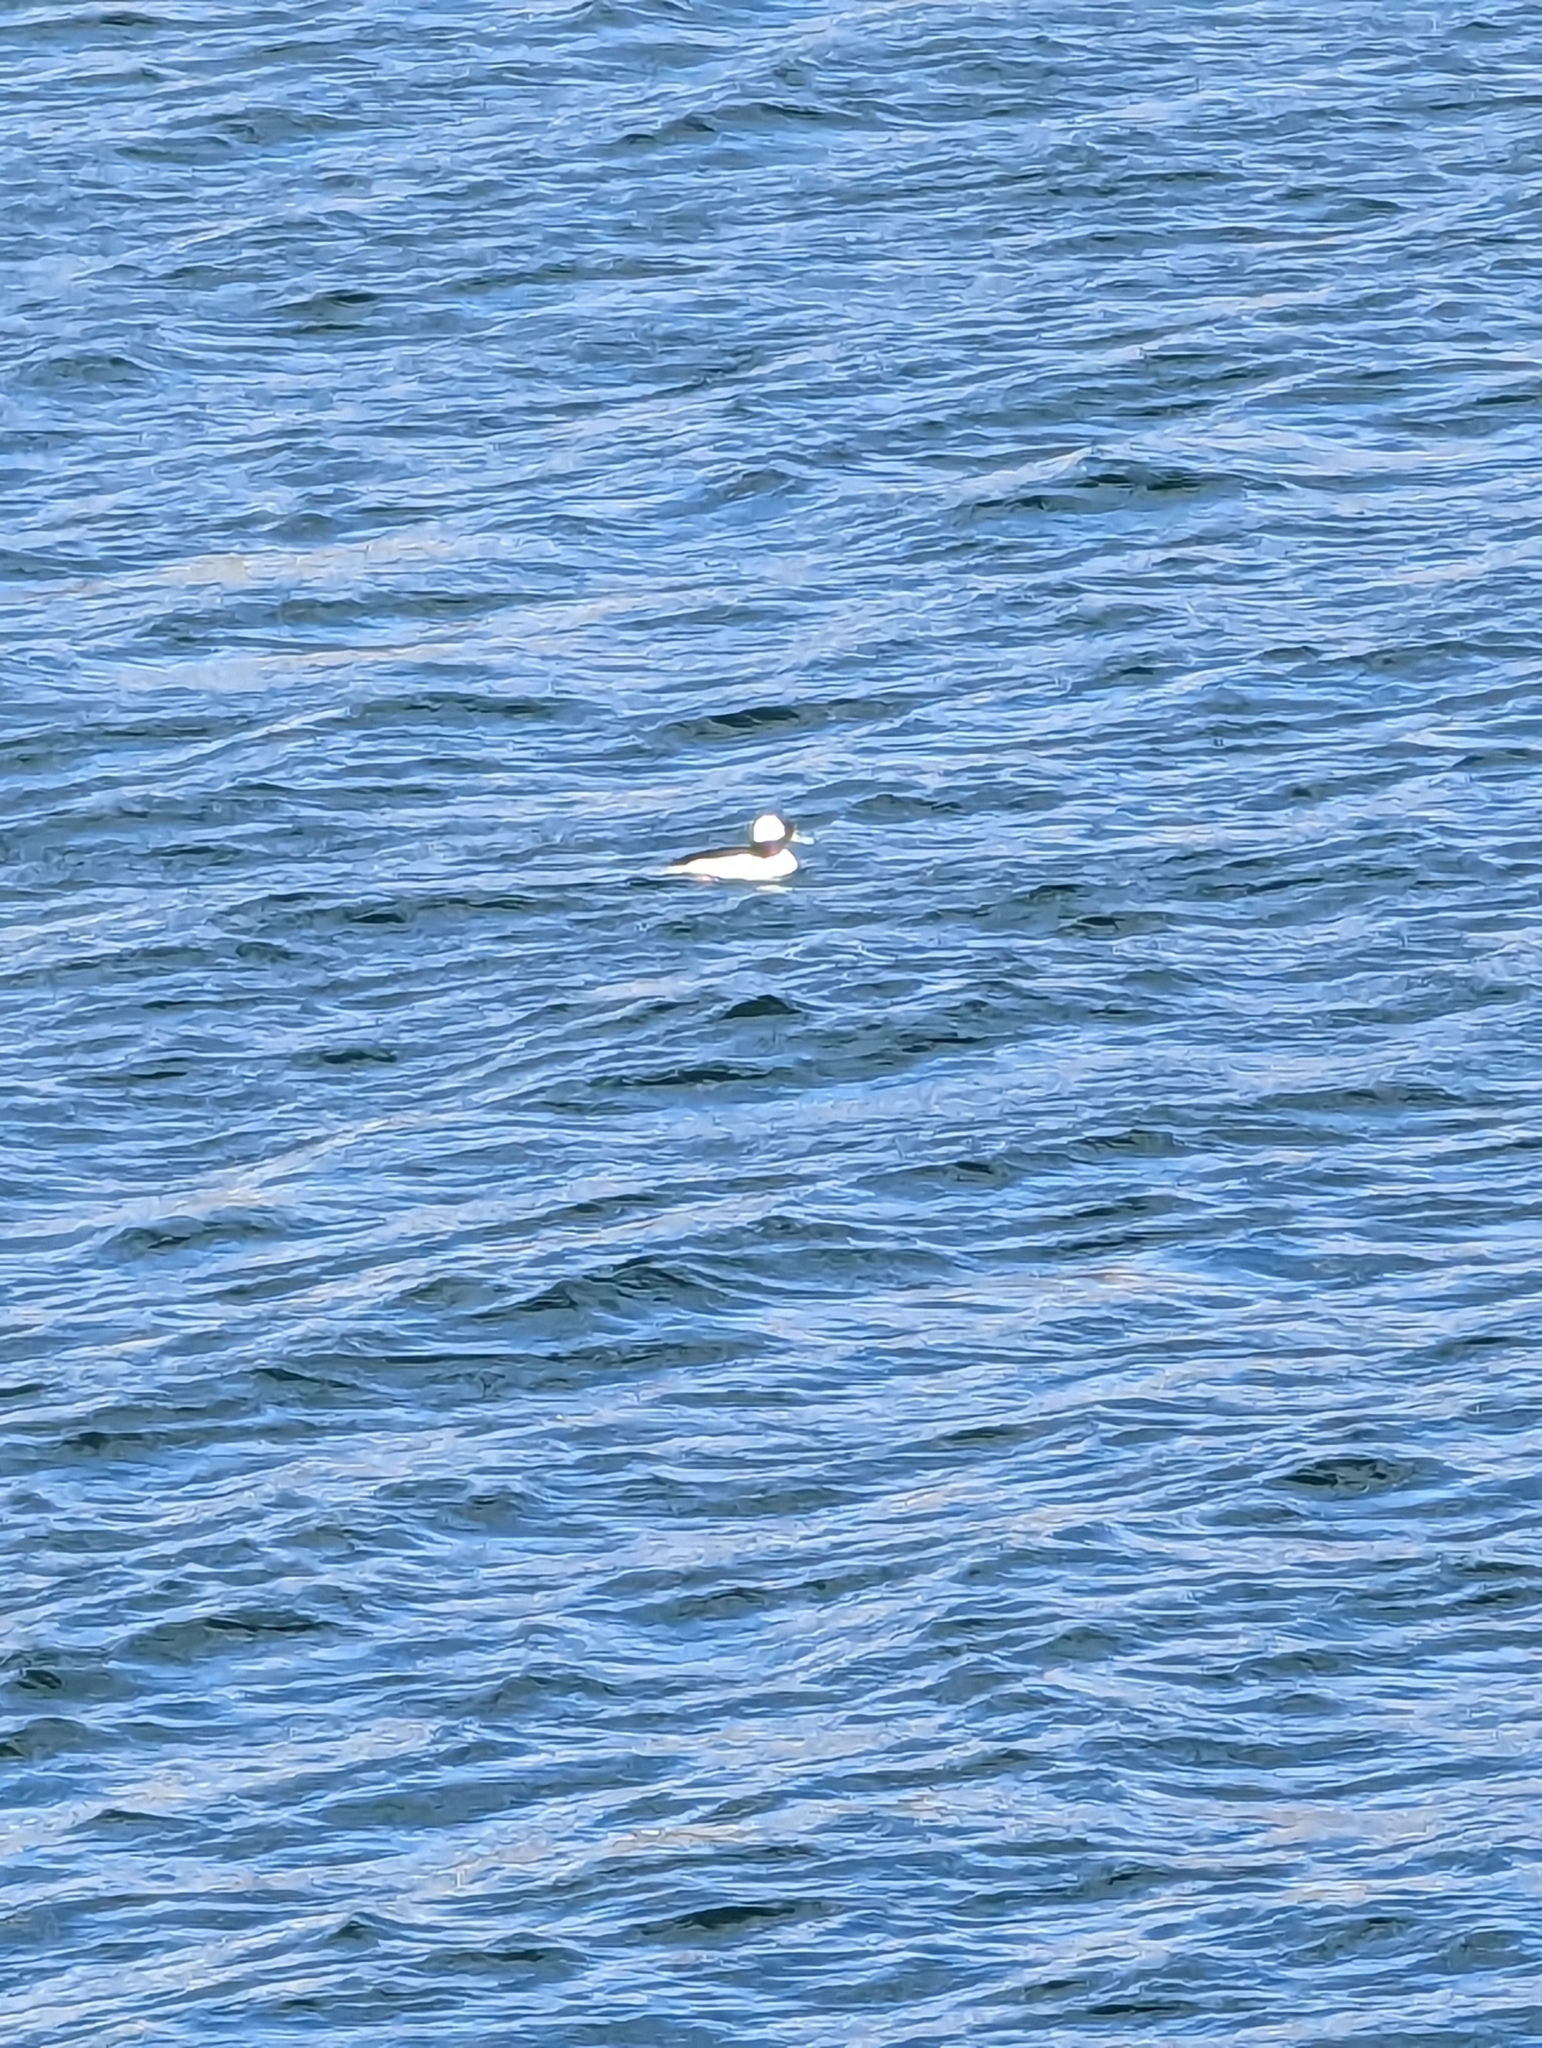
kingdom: Animalia
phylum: Chordata
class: Aves
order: Anseriformes
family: Anatidae
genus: Bucephala
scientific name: Bucephala albeola
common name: Bufflehead
